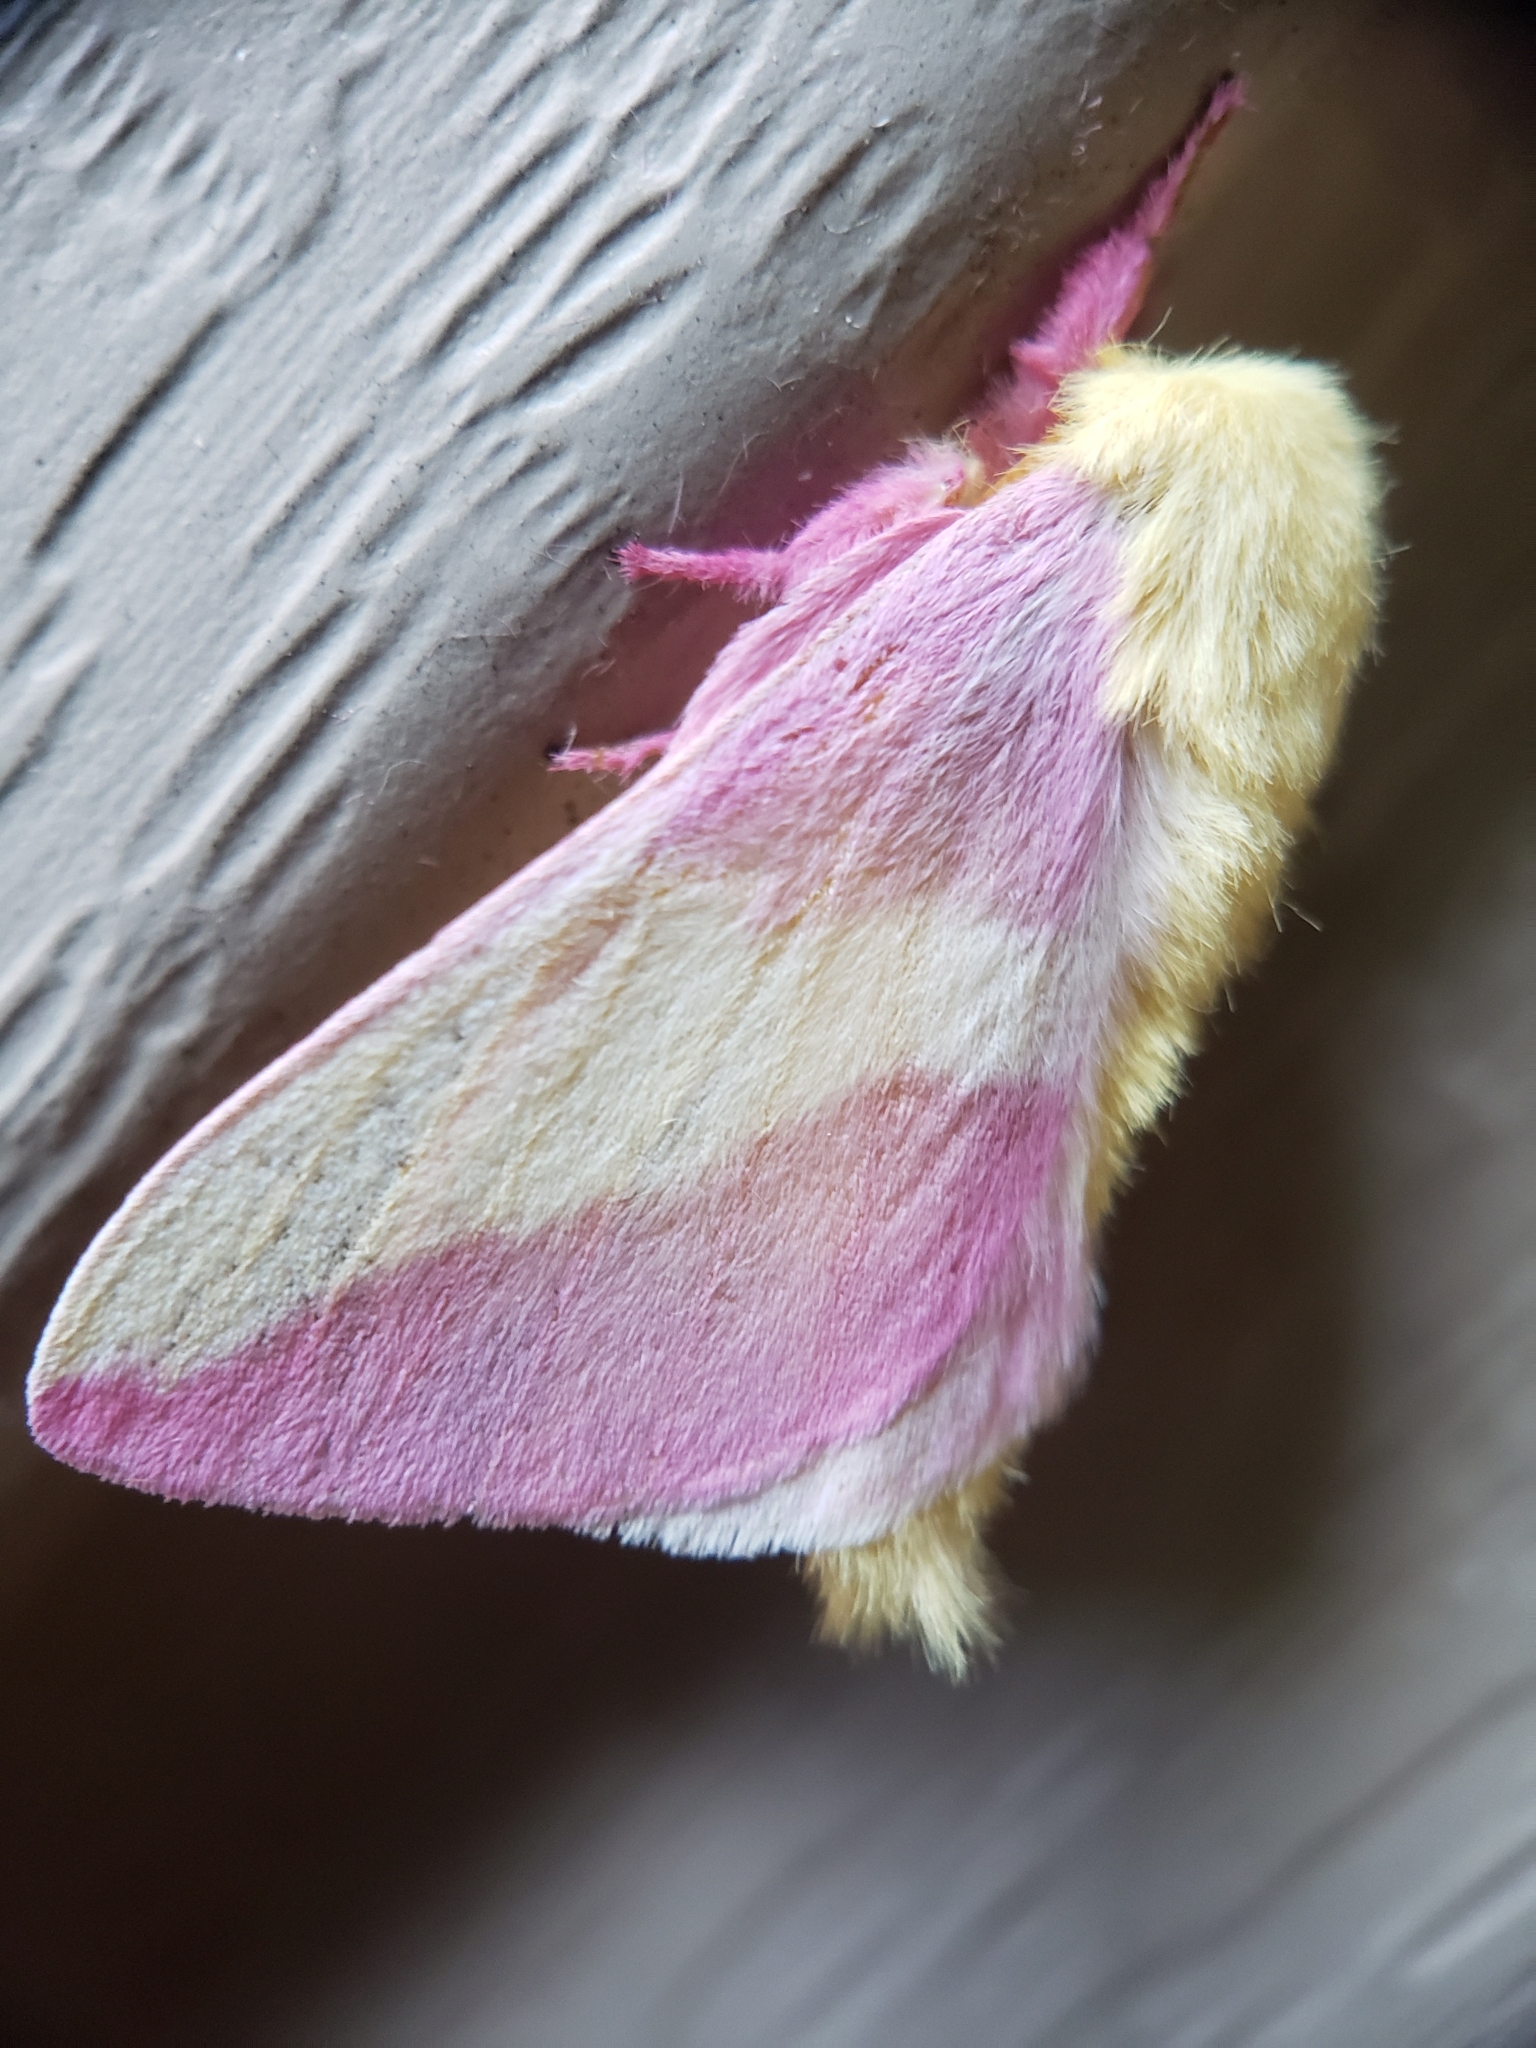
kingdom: Animalia
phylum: Arthropoda
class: Insecta
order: Lepidoptera
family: Saturniidae
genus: Dryocampa
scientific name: Dryocampa rubicunda
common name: Rosy maple moth
